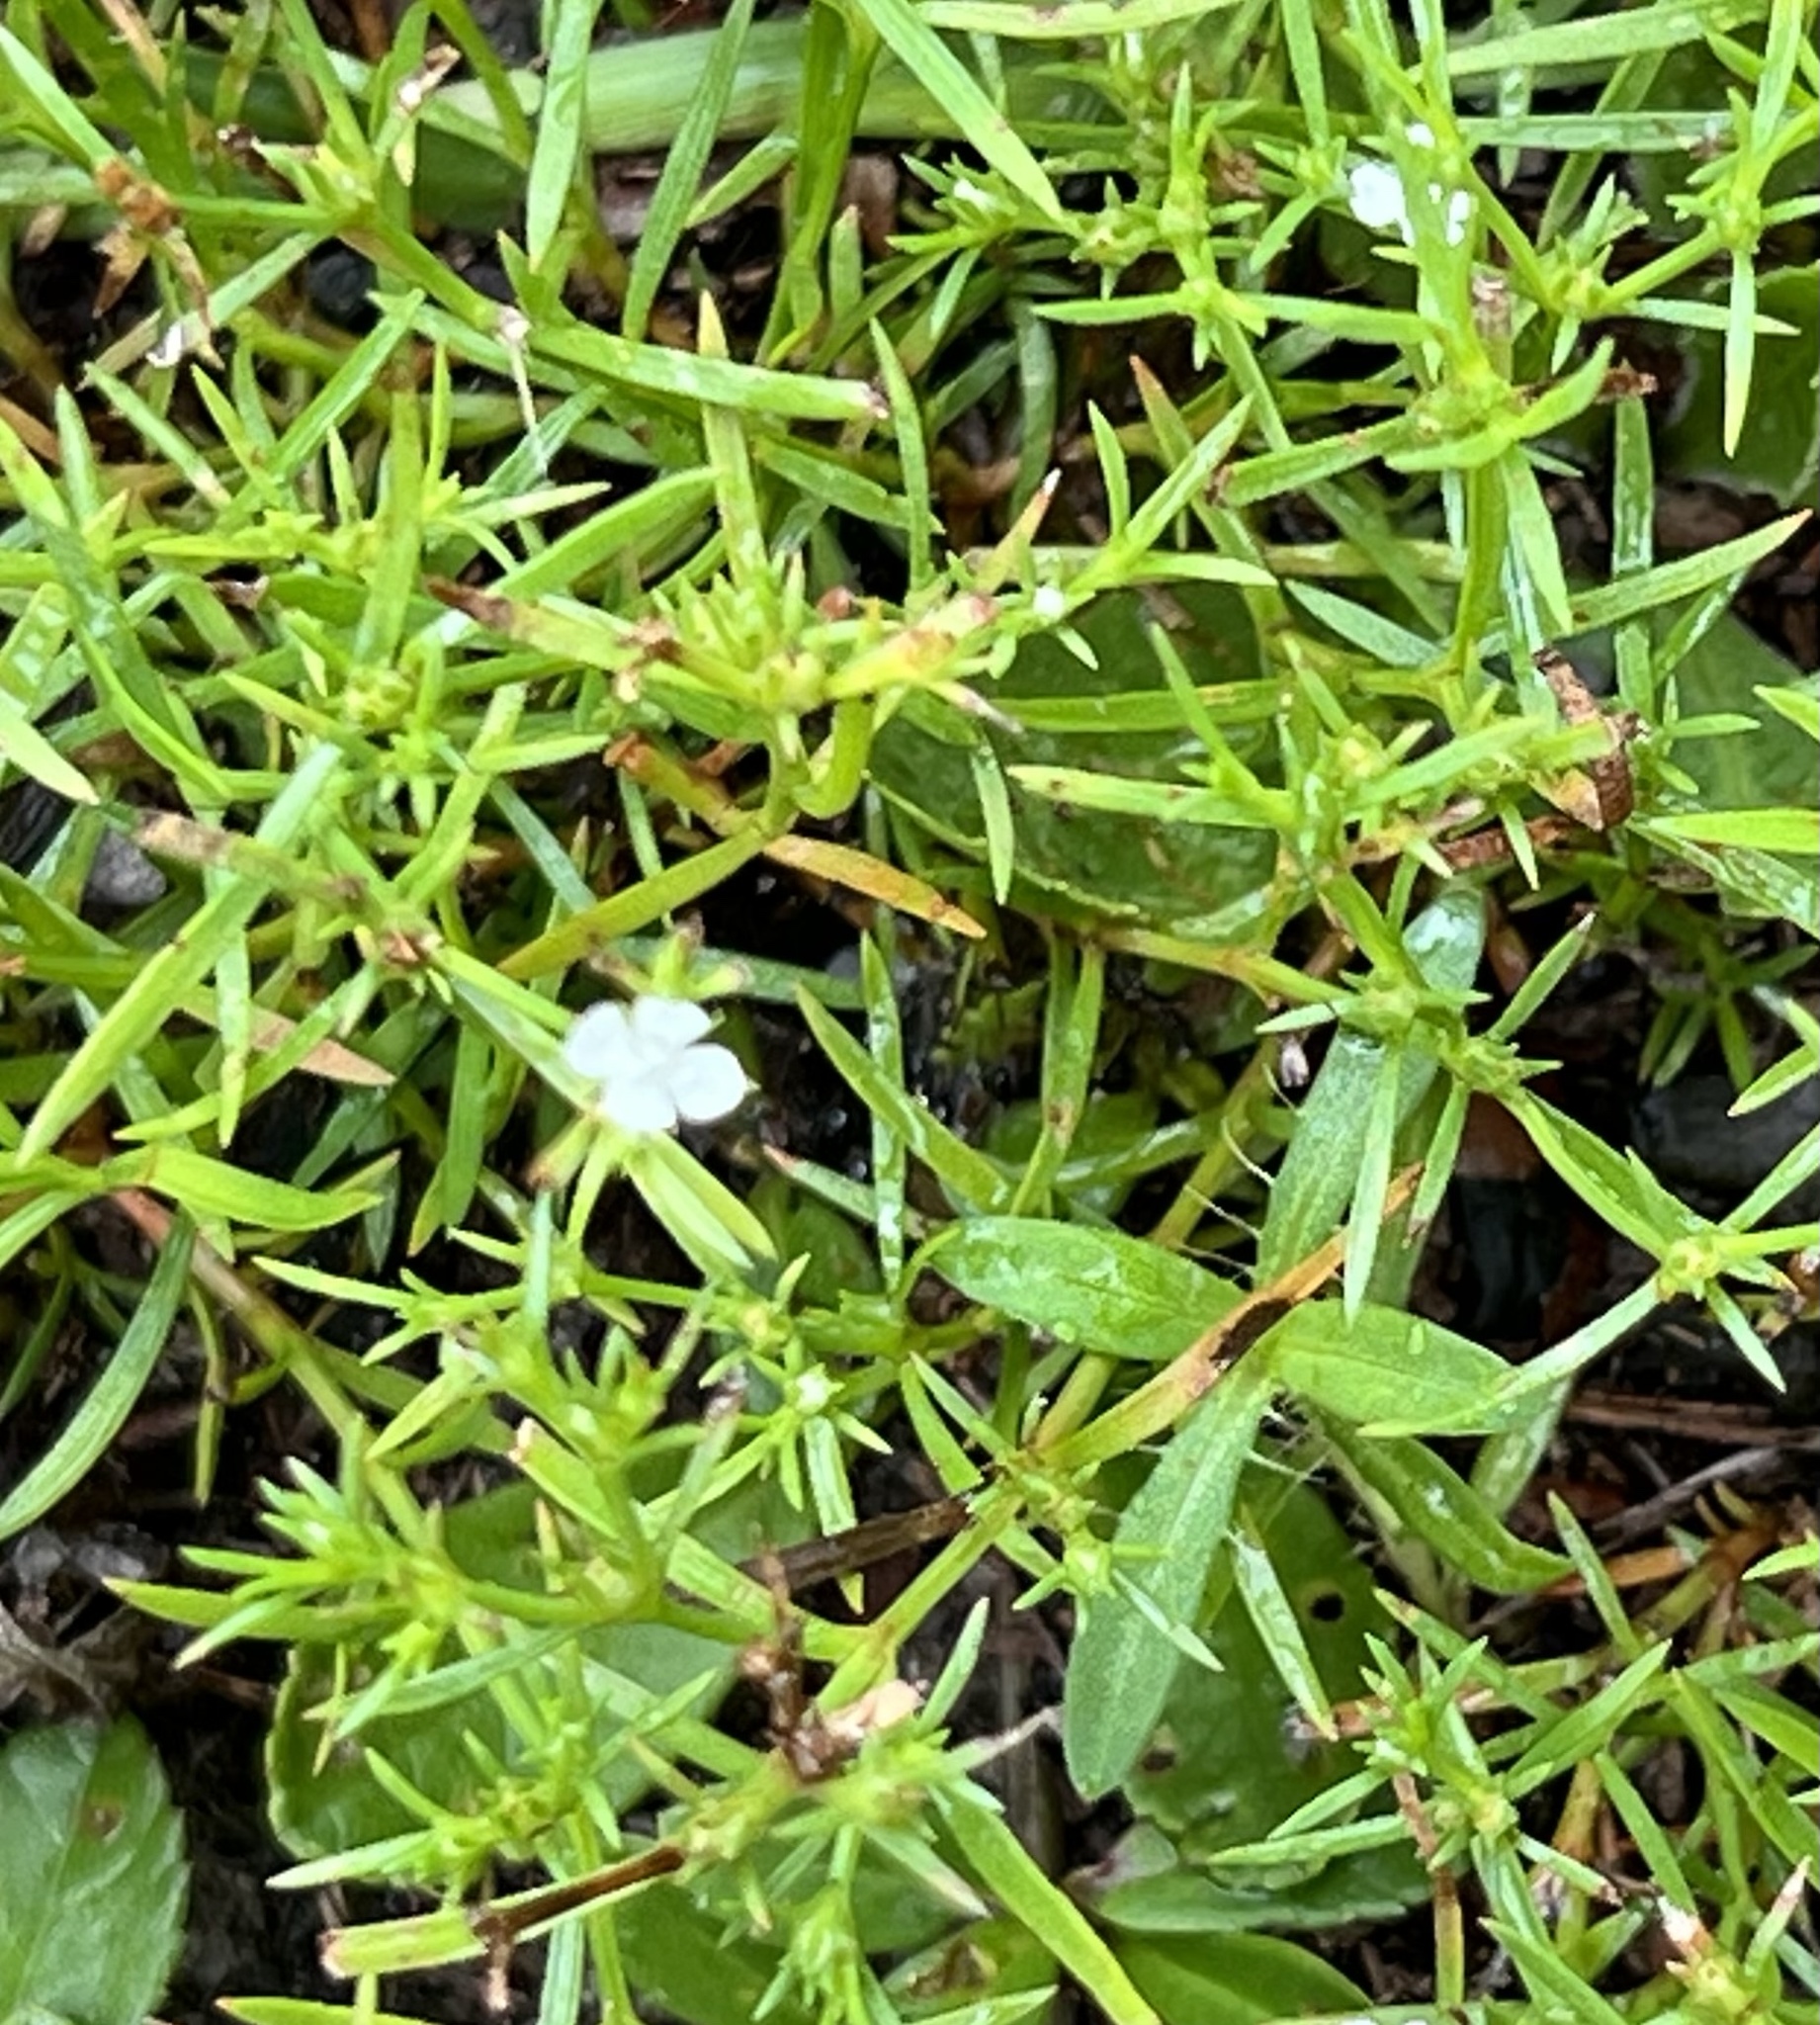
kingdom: Plantae
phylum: Tracheophyta
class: Magnoliopsida
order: Lamiales
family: Tetrachondraceae
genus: Polypremum
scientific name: Polypremum procumbens
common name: Juniper-leaf
